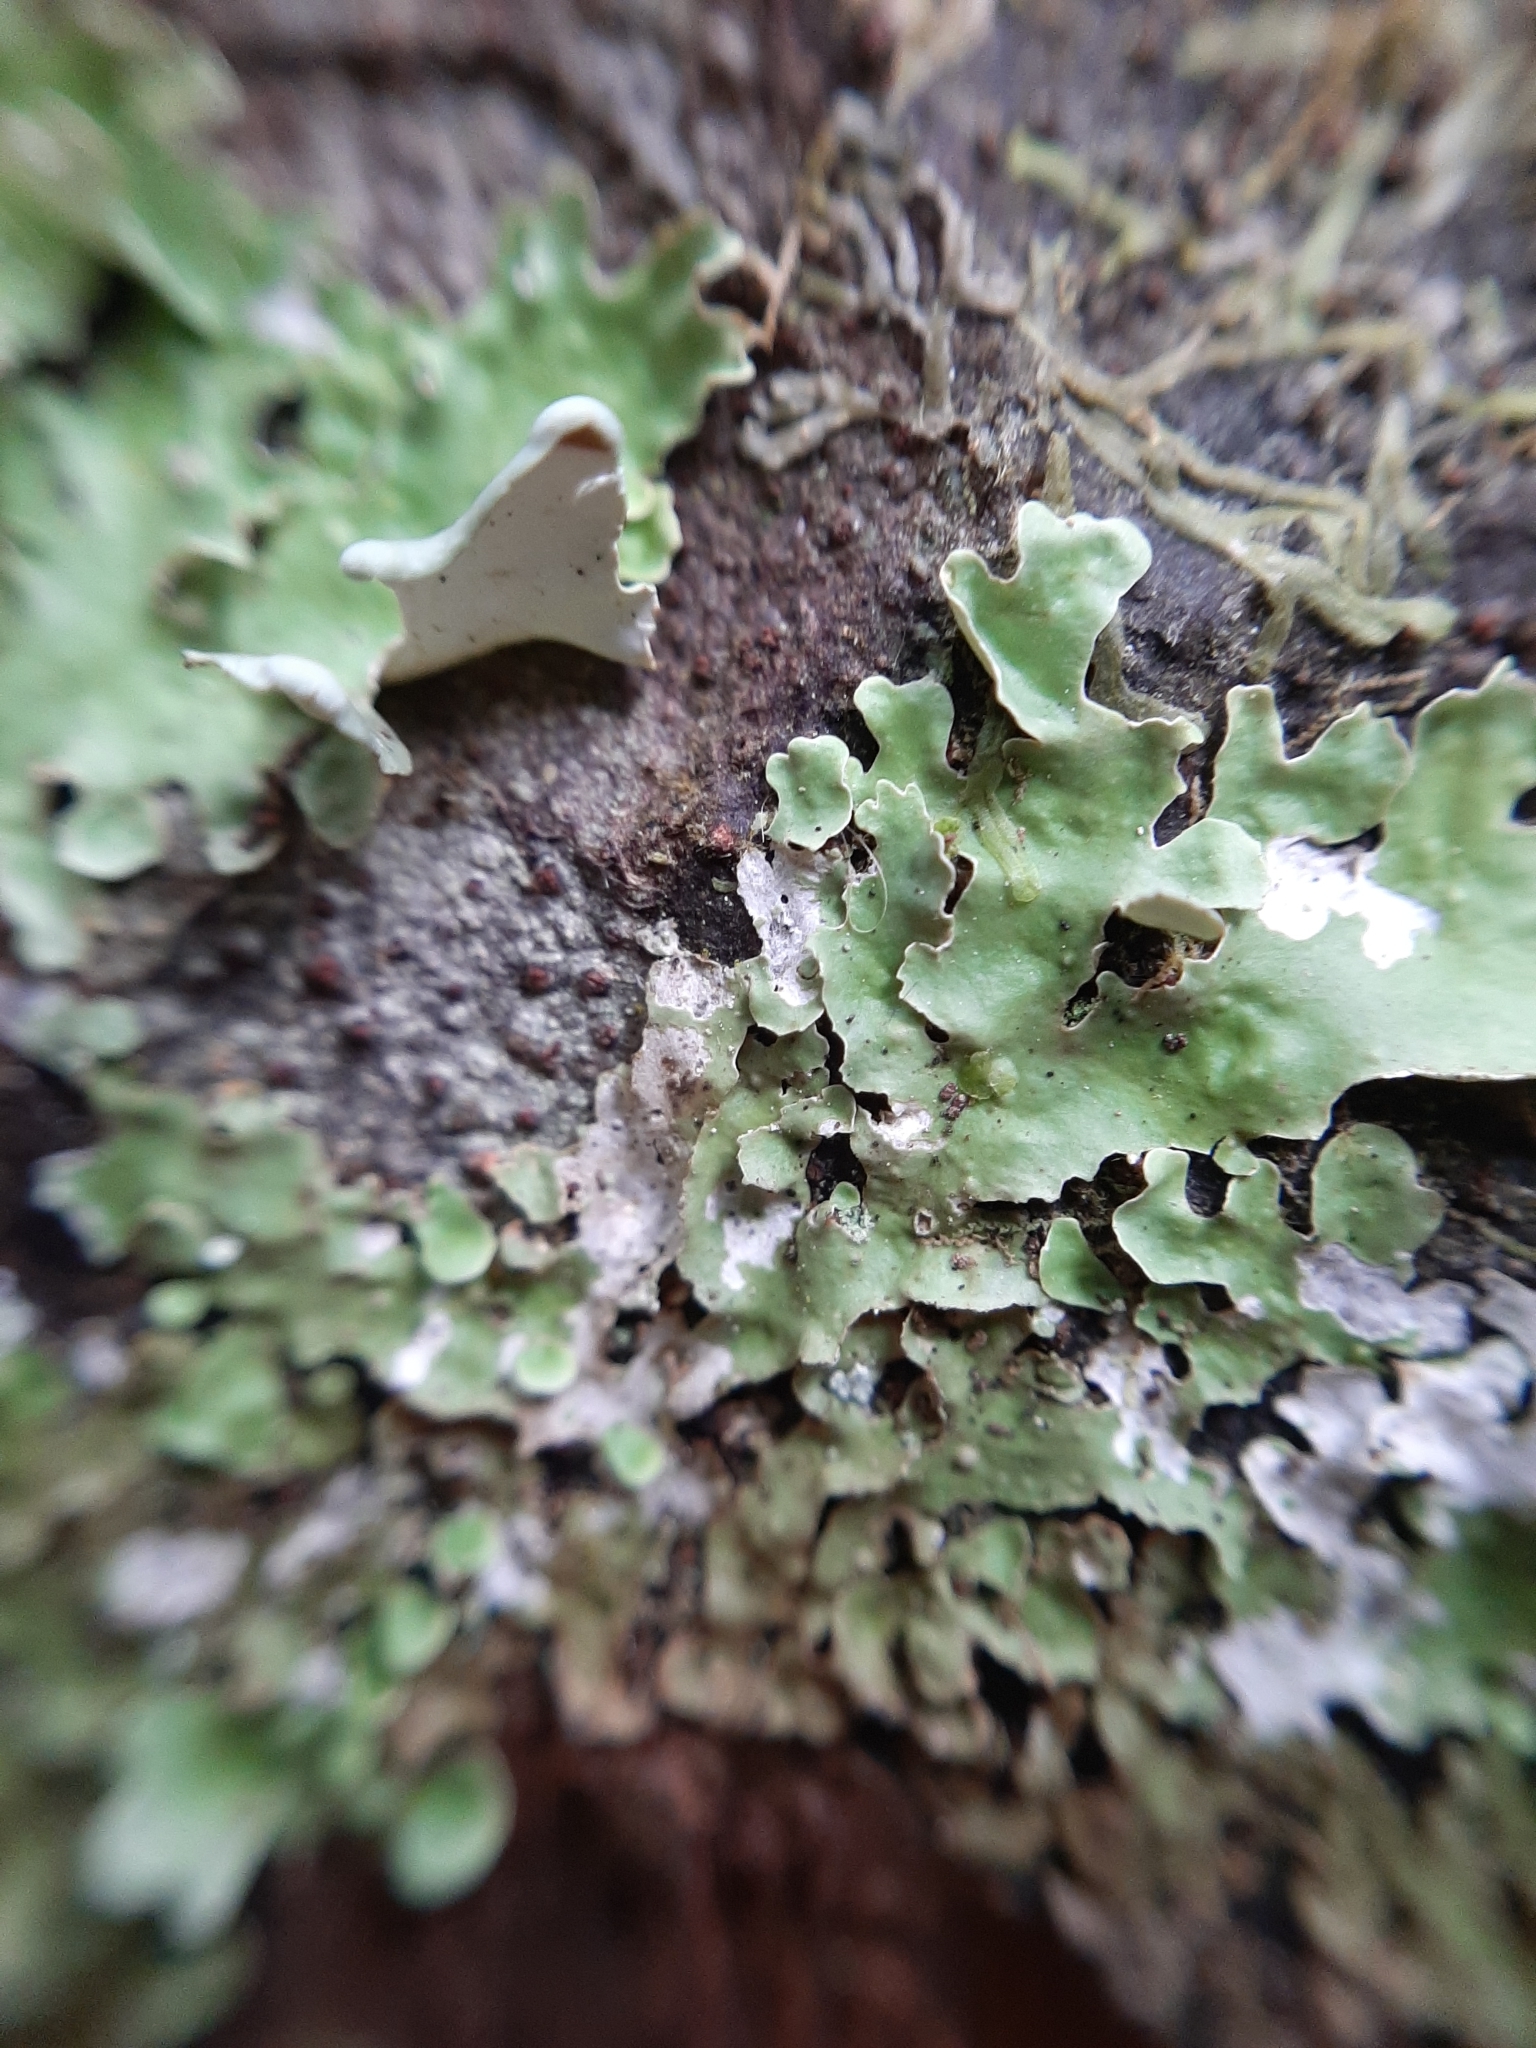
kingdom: Fungi
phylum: Ascomycota
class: Lecanoromycetes
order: Peltigerales
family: Nephromataceae
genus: Nephroma
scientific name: Nephroma australe
